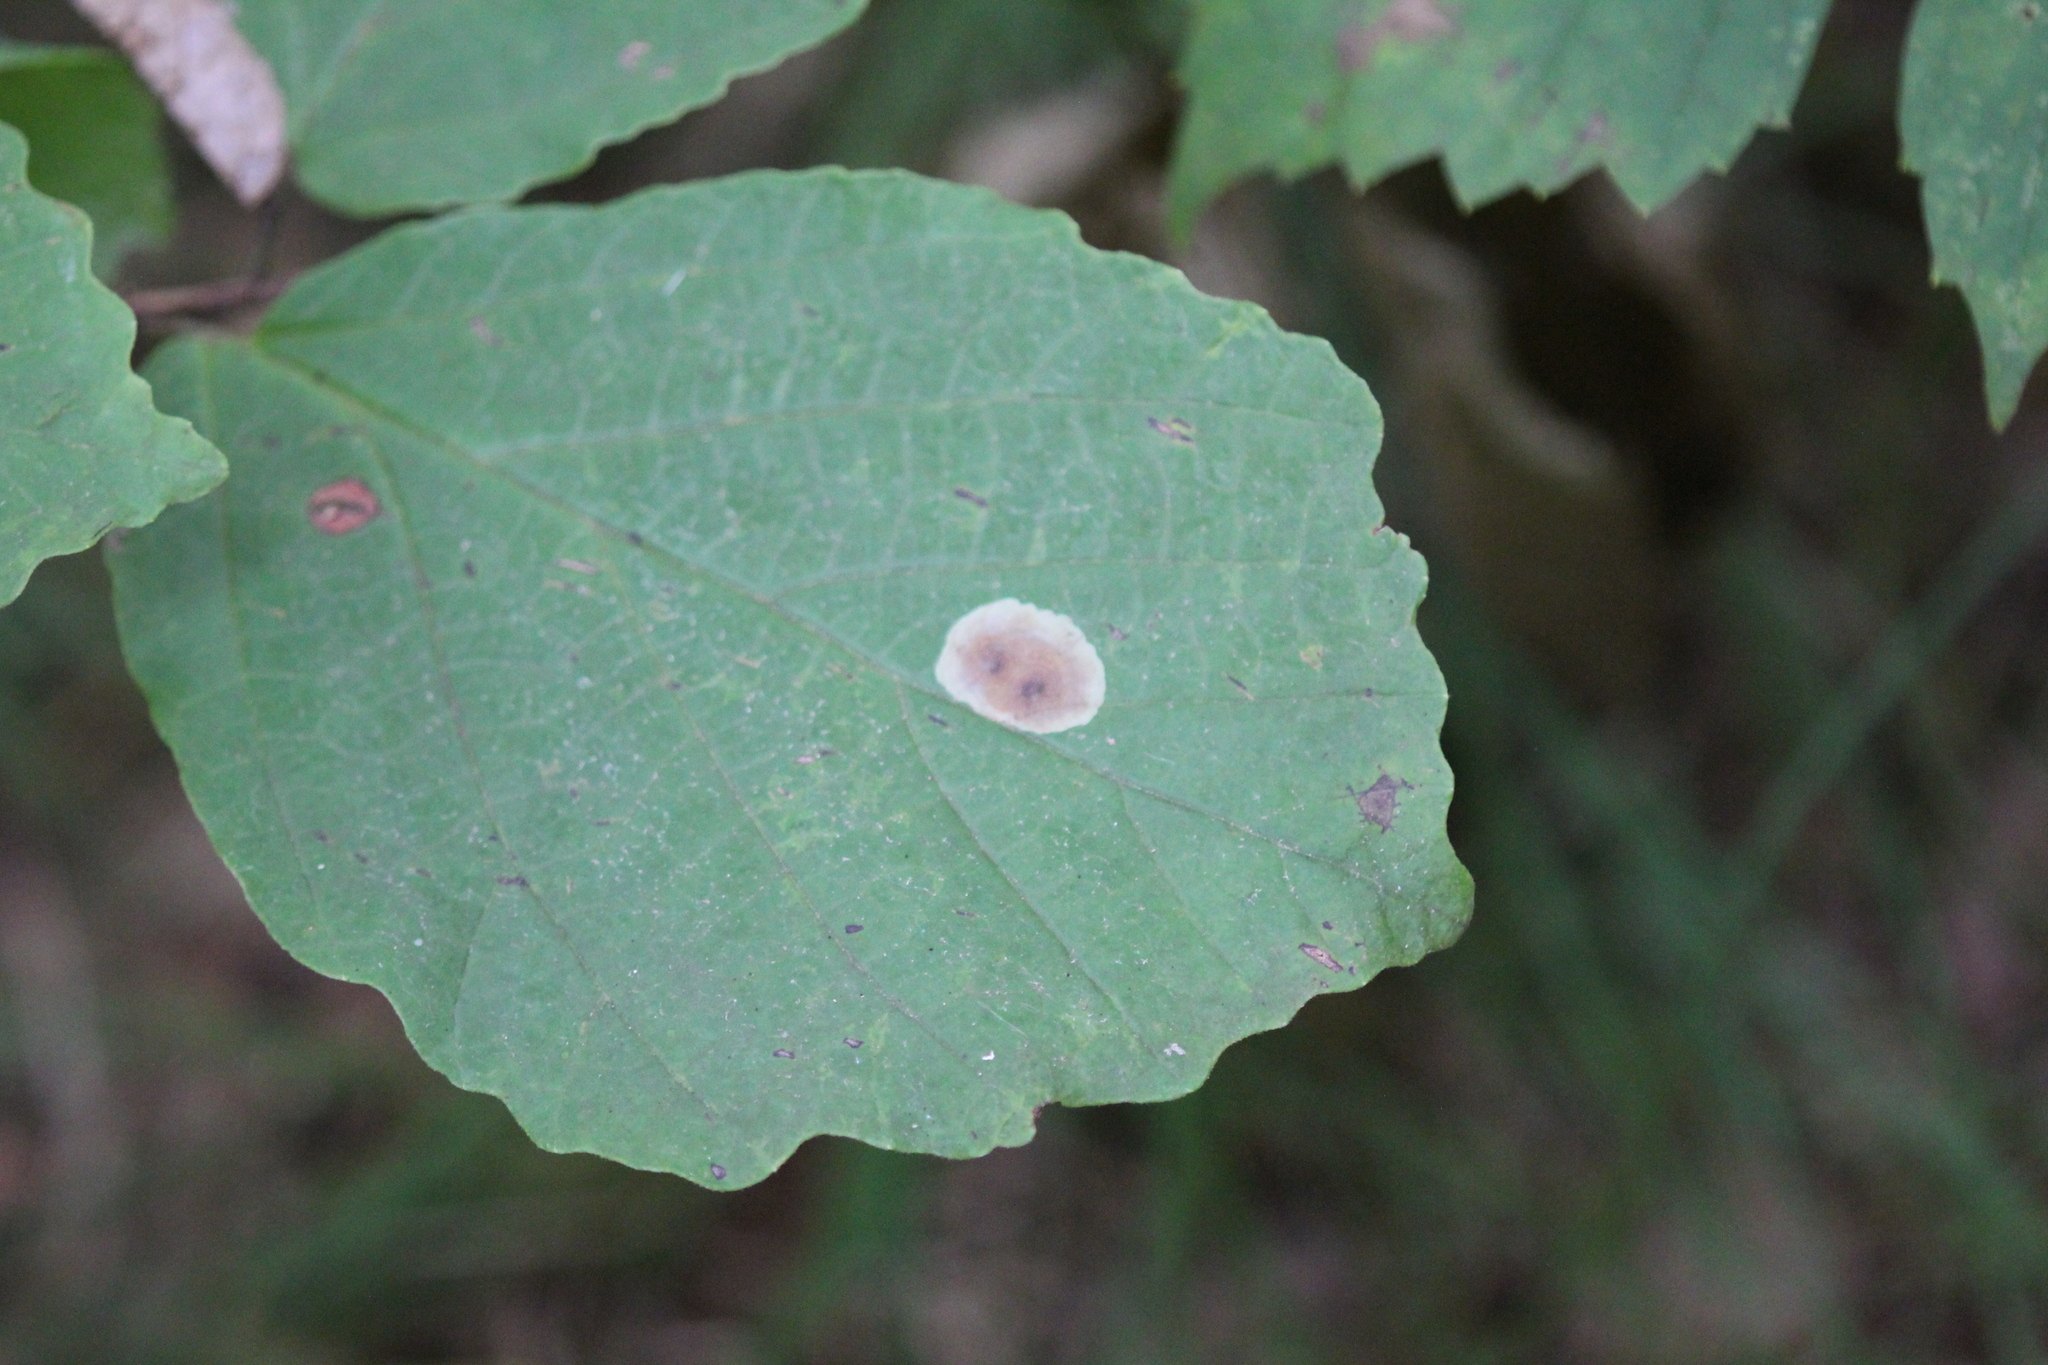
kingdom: Plantae
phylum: Tracheophyta
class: Magnoliopsida
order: Saxifragales
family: Hamamelidaceae
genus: Hamamelis
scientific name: Hamamelis virginiana
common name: Witch-hazel
